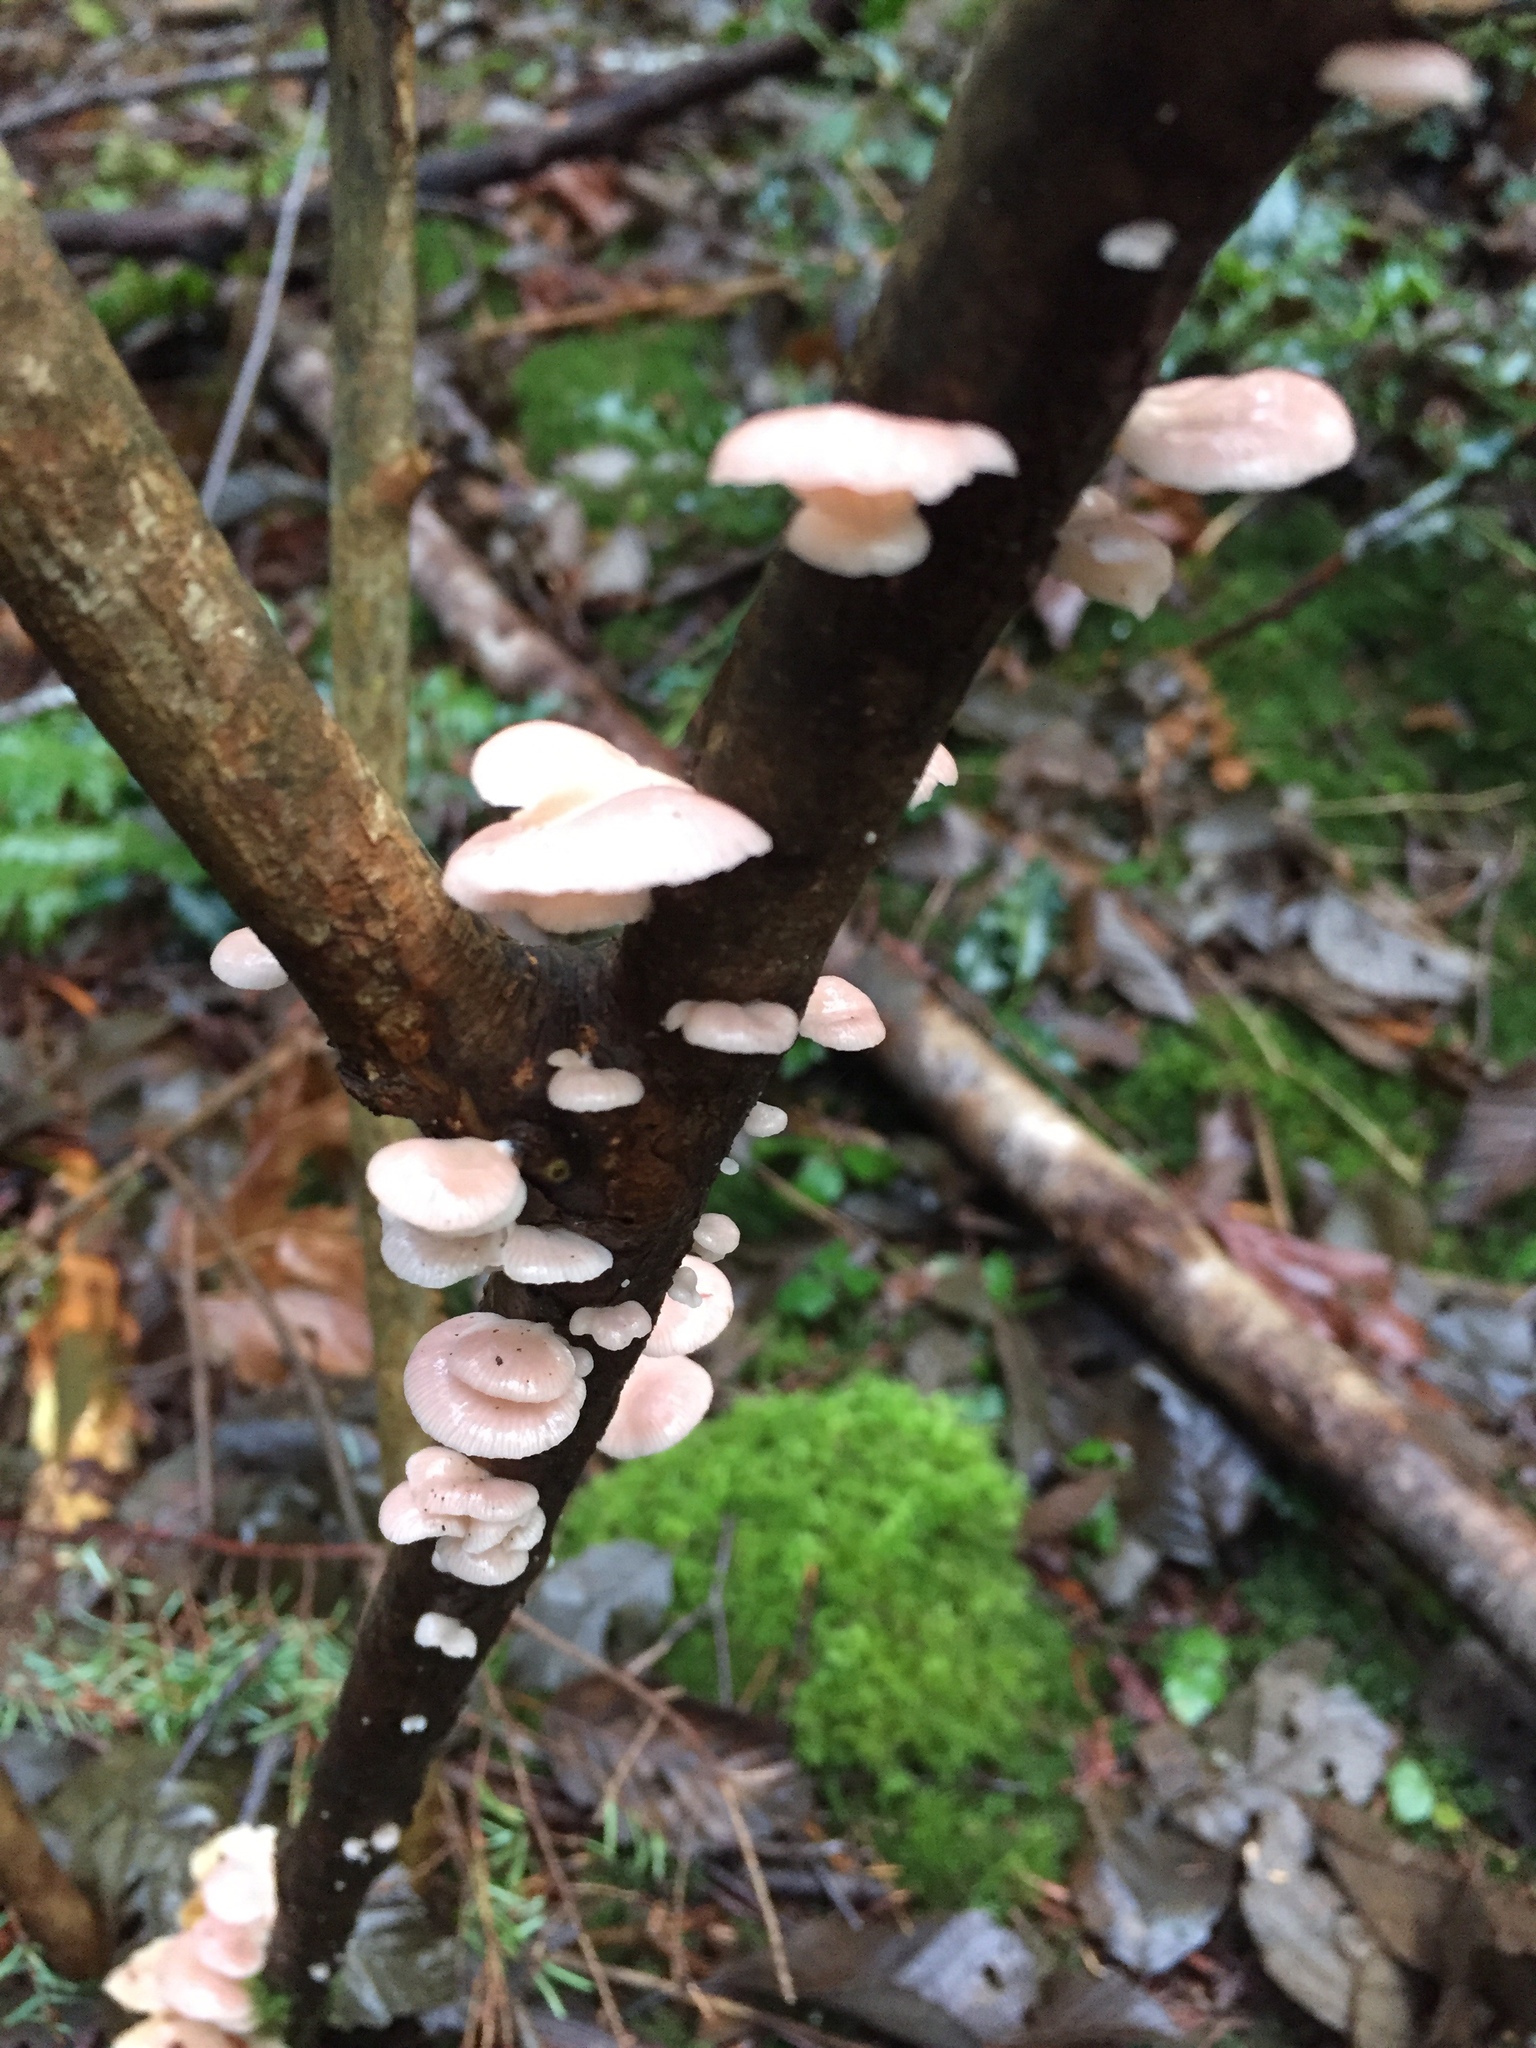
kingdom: Fungi
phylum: Basidiomycota
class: Agaricomycetes
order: Agaricales
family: Mycenaceae
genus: Panellus
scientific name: Panellus longinquus
